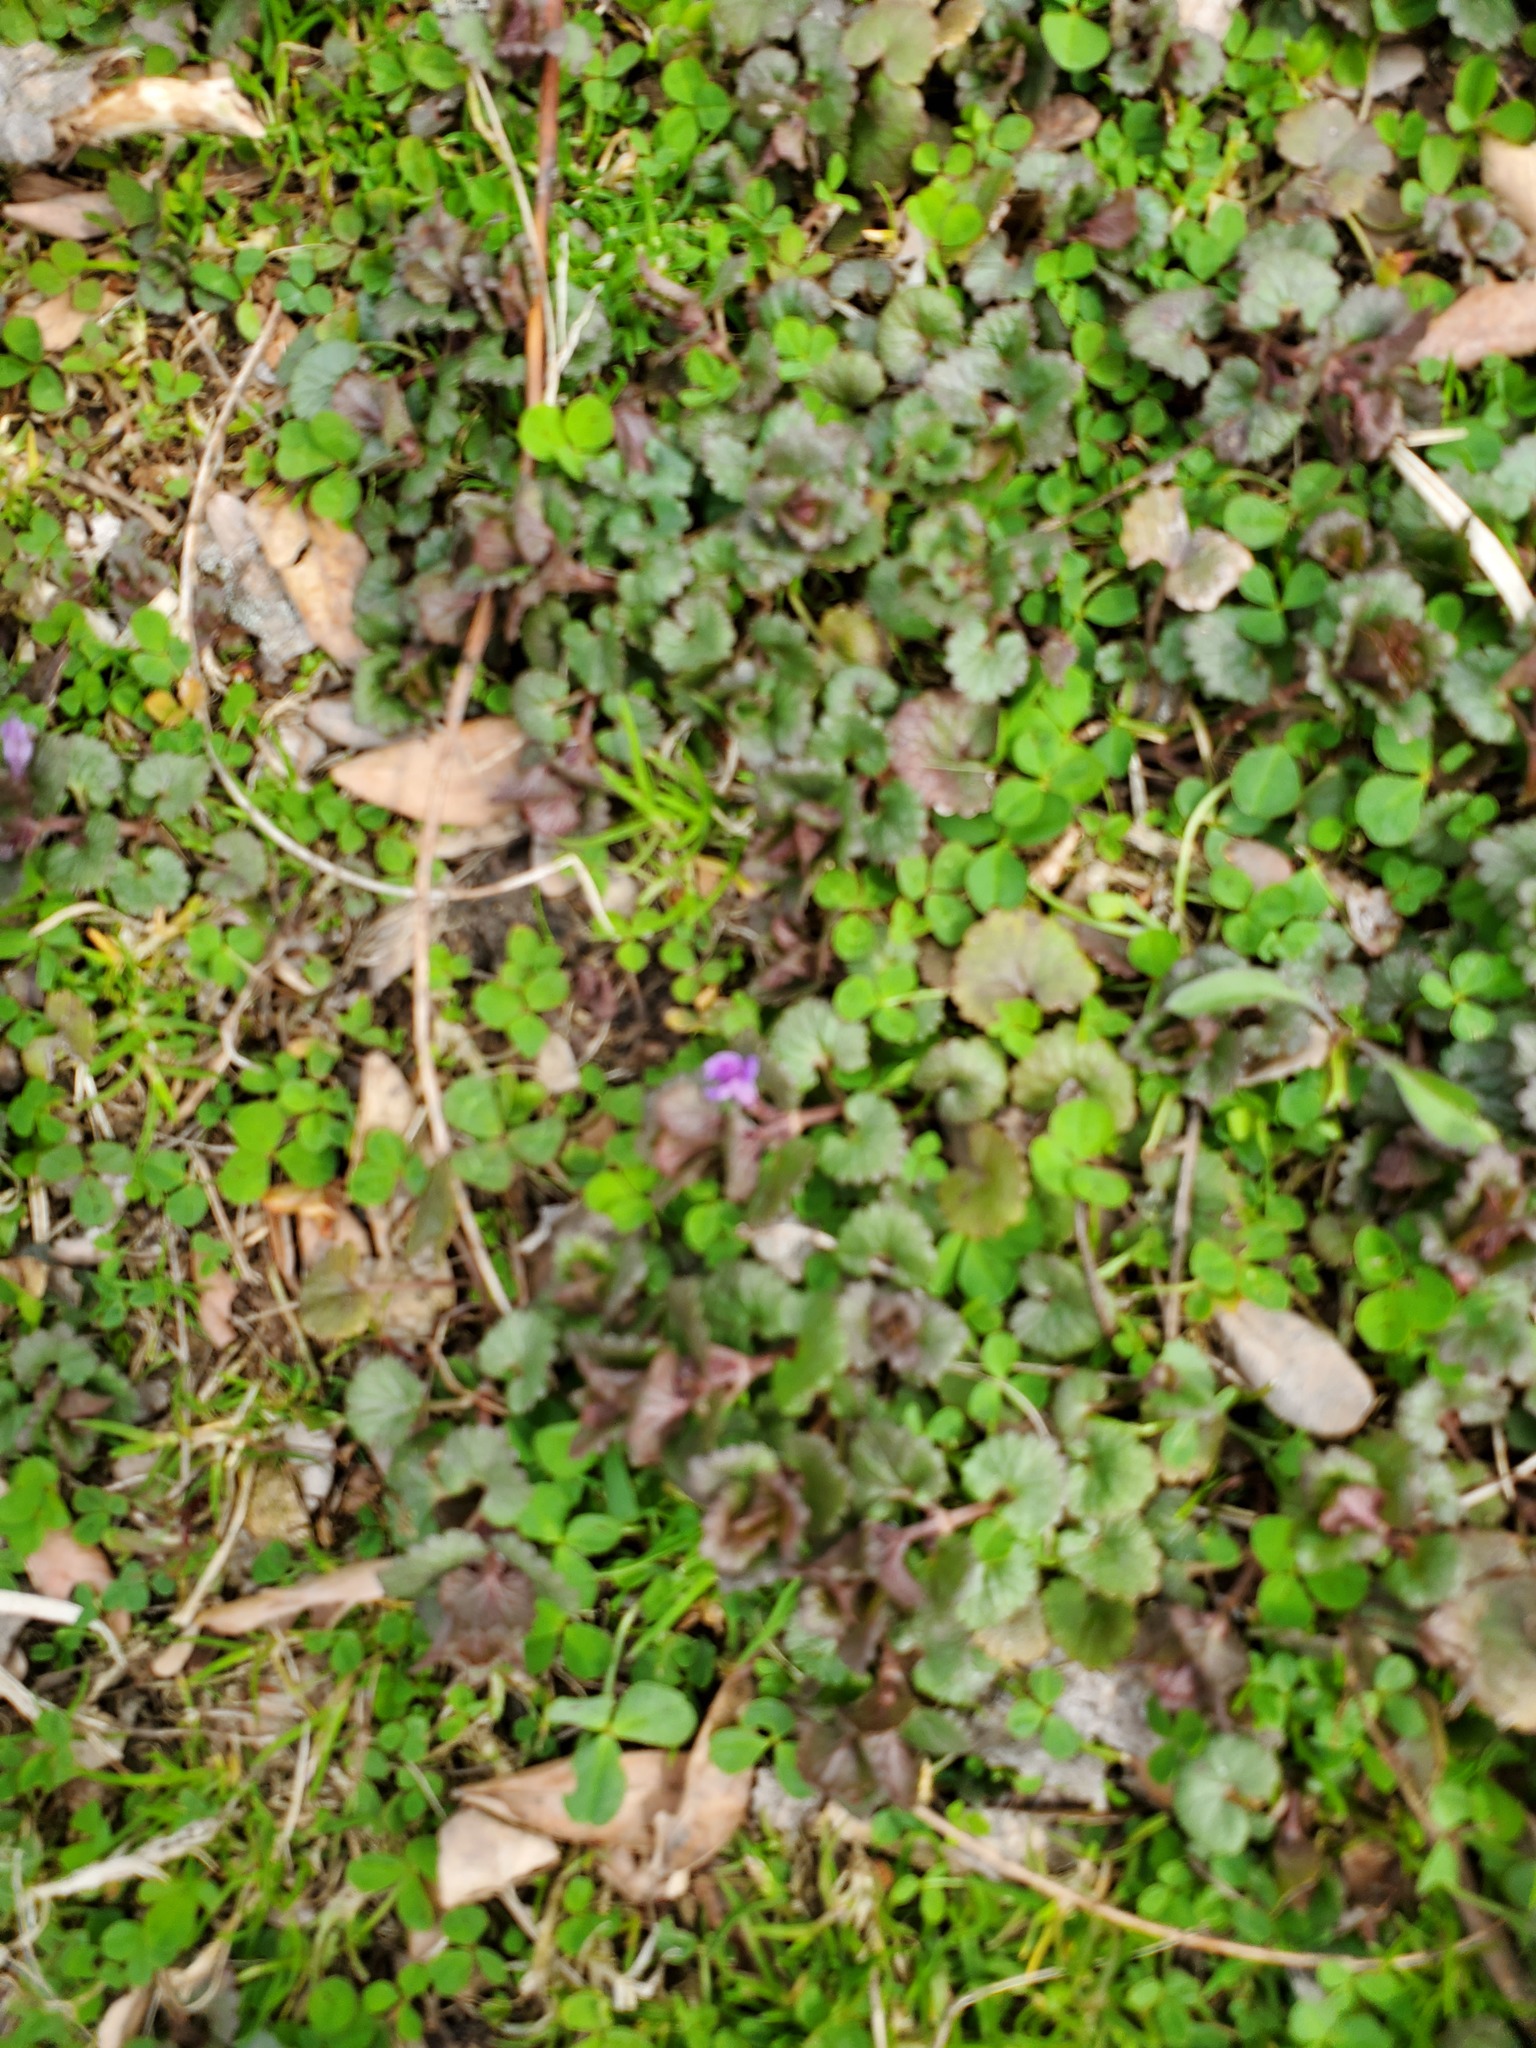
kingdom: Plantae
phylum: Tracheophyta
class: Magnoliopsida
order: Lamiales
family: Lamiaceae
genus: Glechoma
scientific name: Glechoma hederacea
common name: Ground ivy
